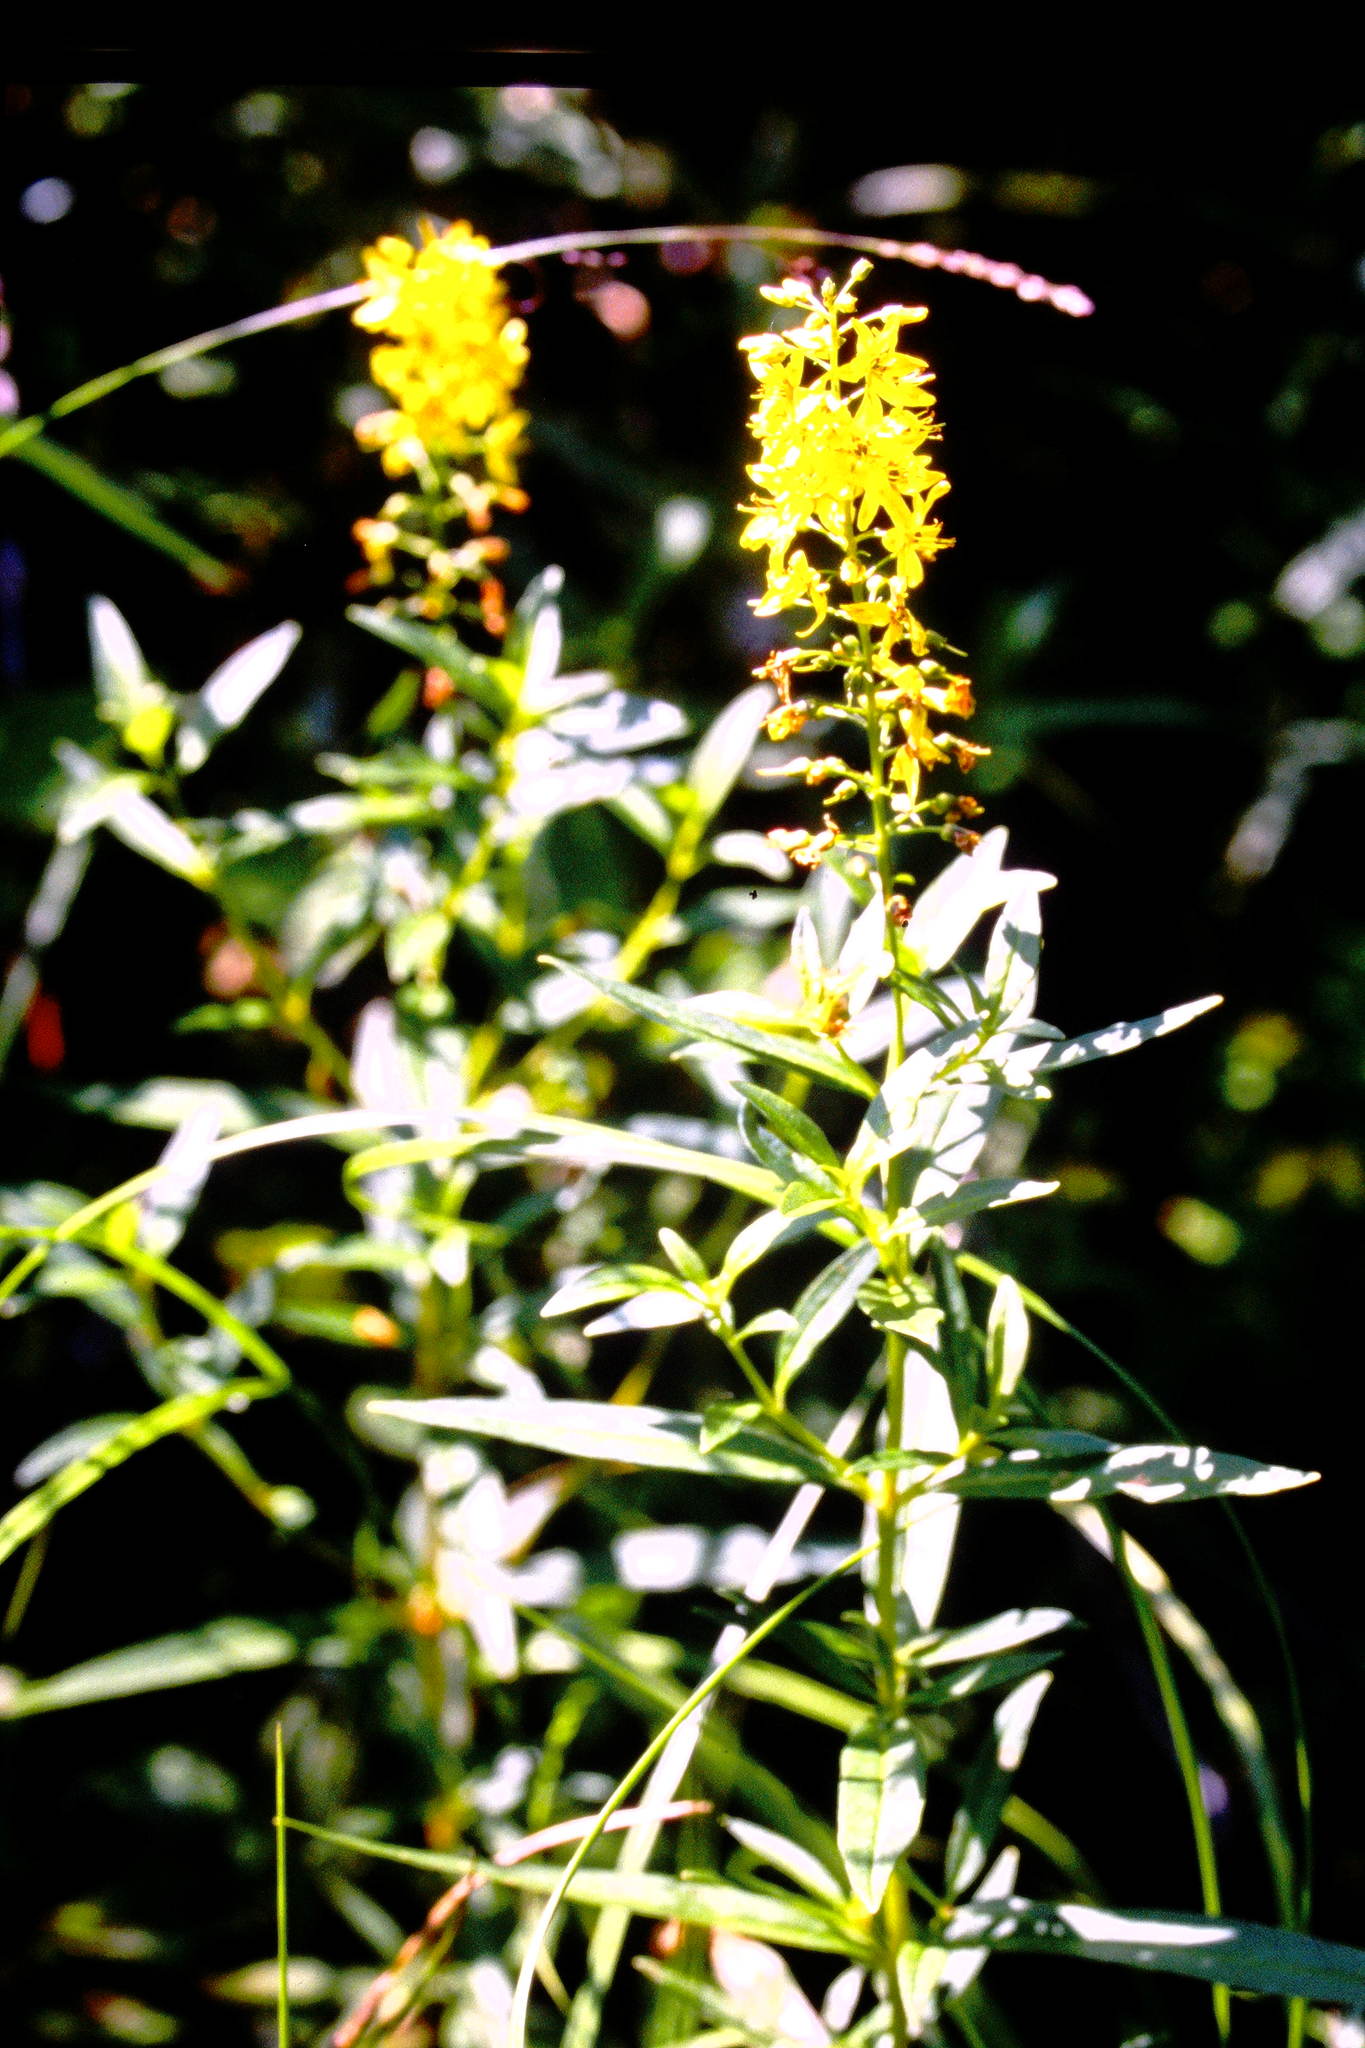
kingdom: Plantae
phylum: Tracheophyta
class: Magnoliopsida
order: Ericales
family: Primulaceae
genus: Lysimachia
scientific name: Lysimachia terrestris
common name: Lake loosestrife
